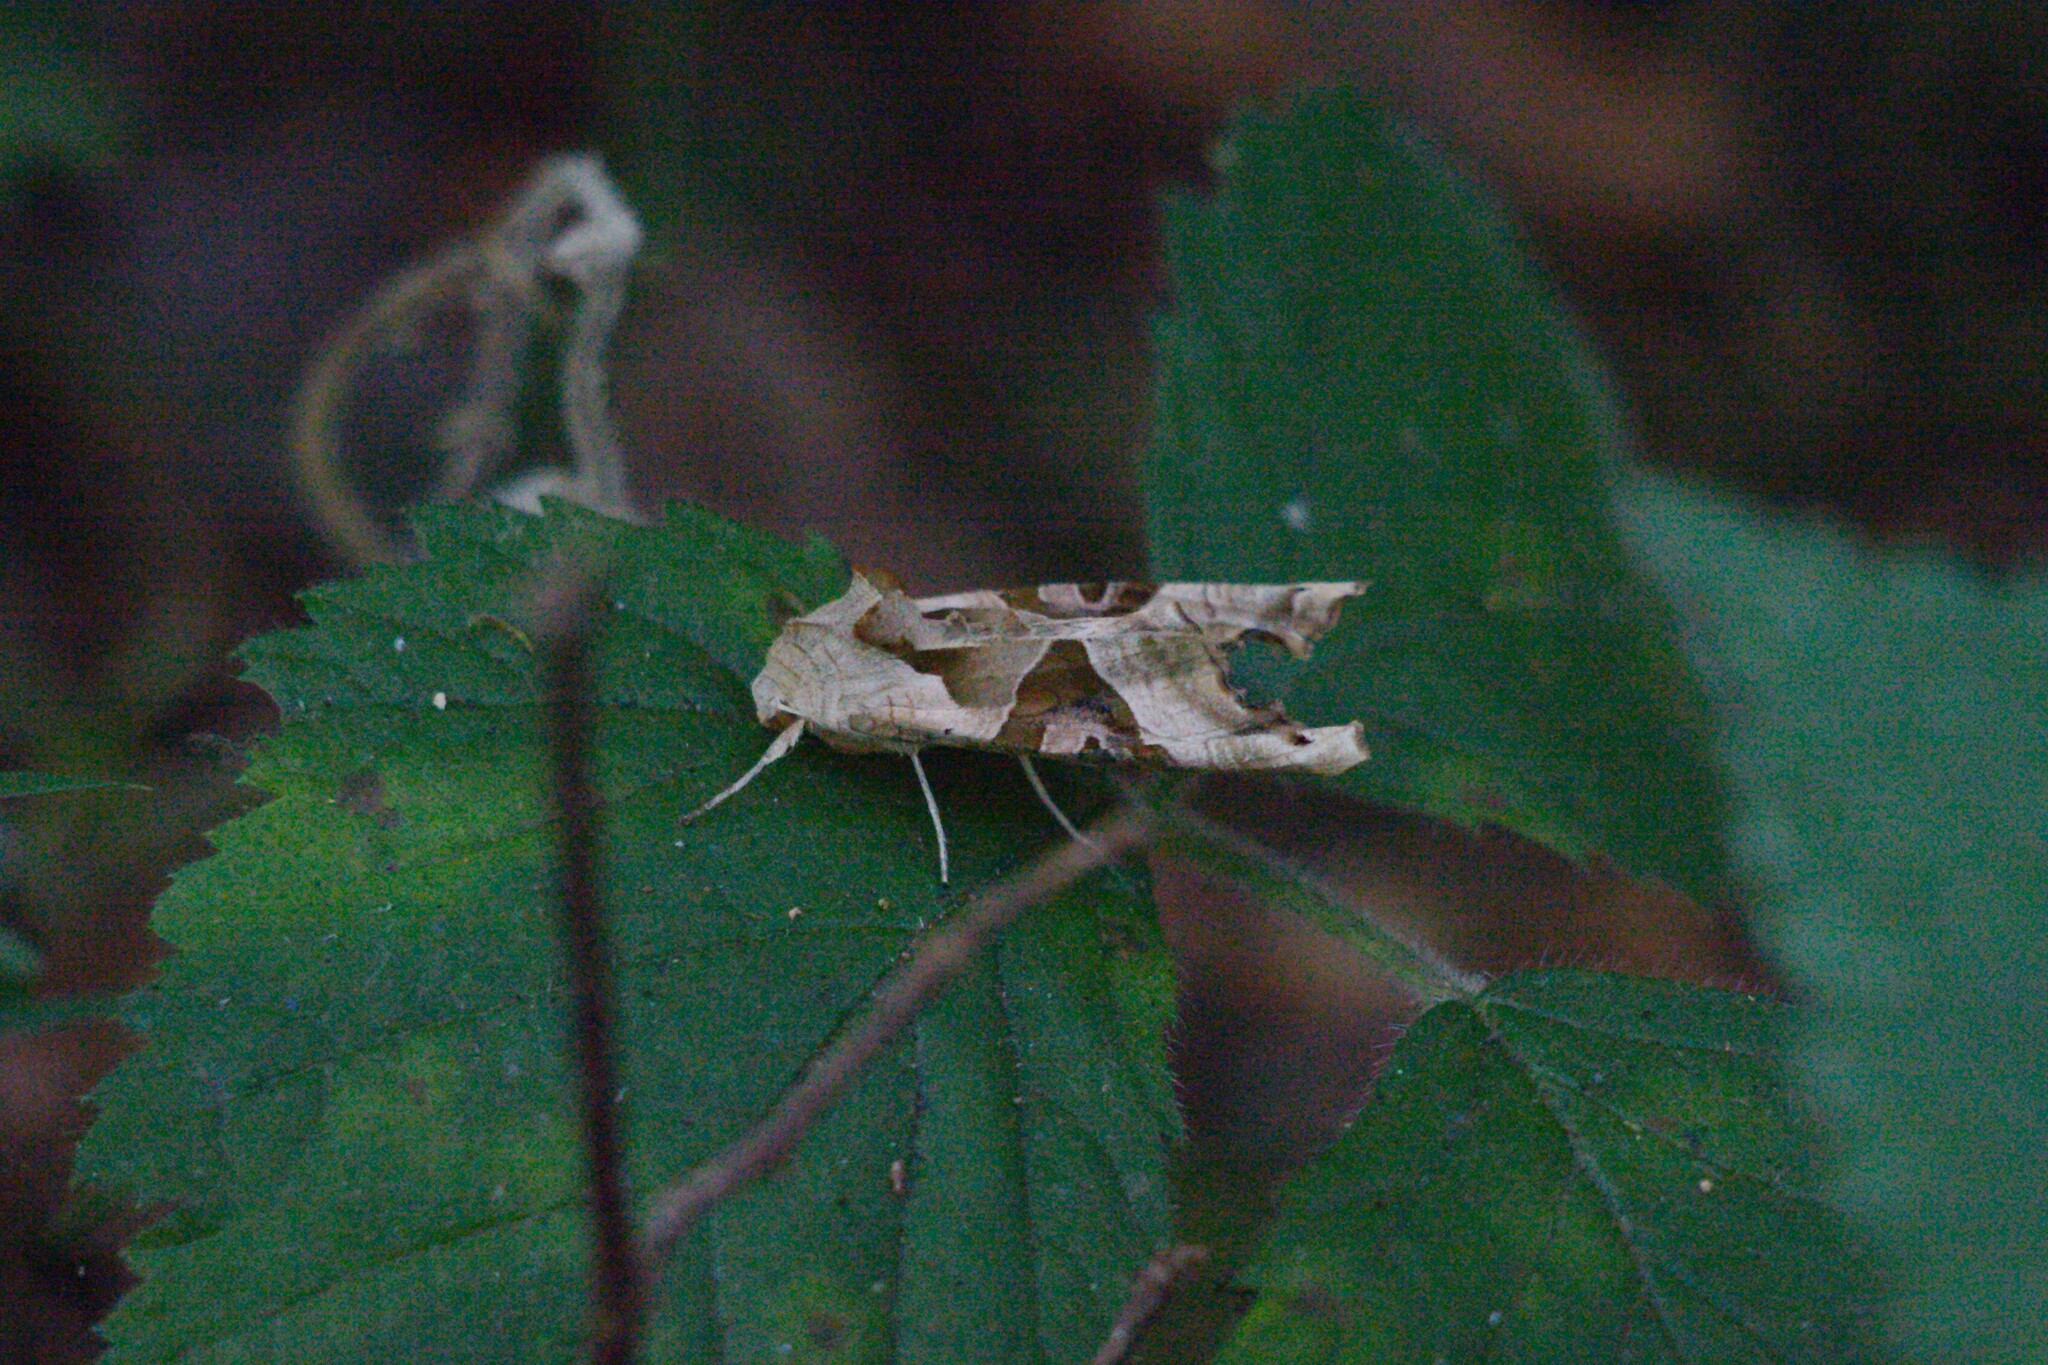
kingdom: Animalia
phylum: Arthropoda
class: Insecta
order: Lepidoptera
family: Noctuidae
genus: Phlogophora
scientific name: Phlogophora meticulosa
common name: Angle shades
